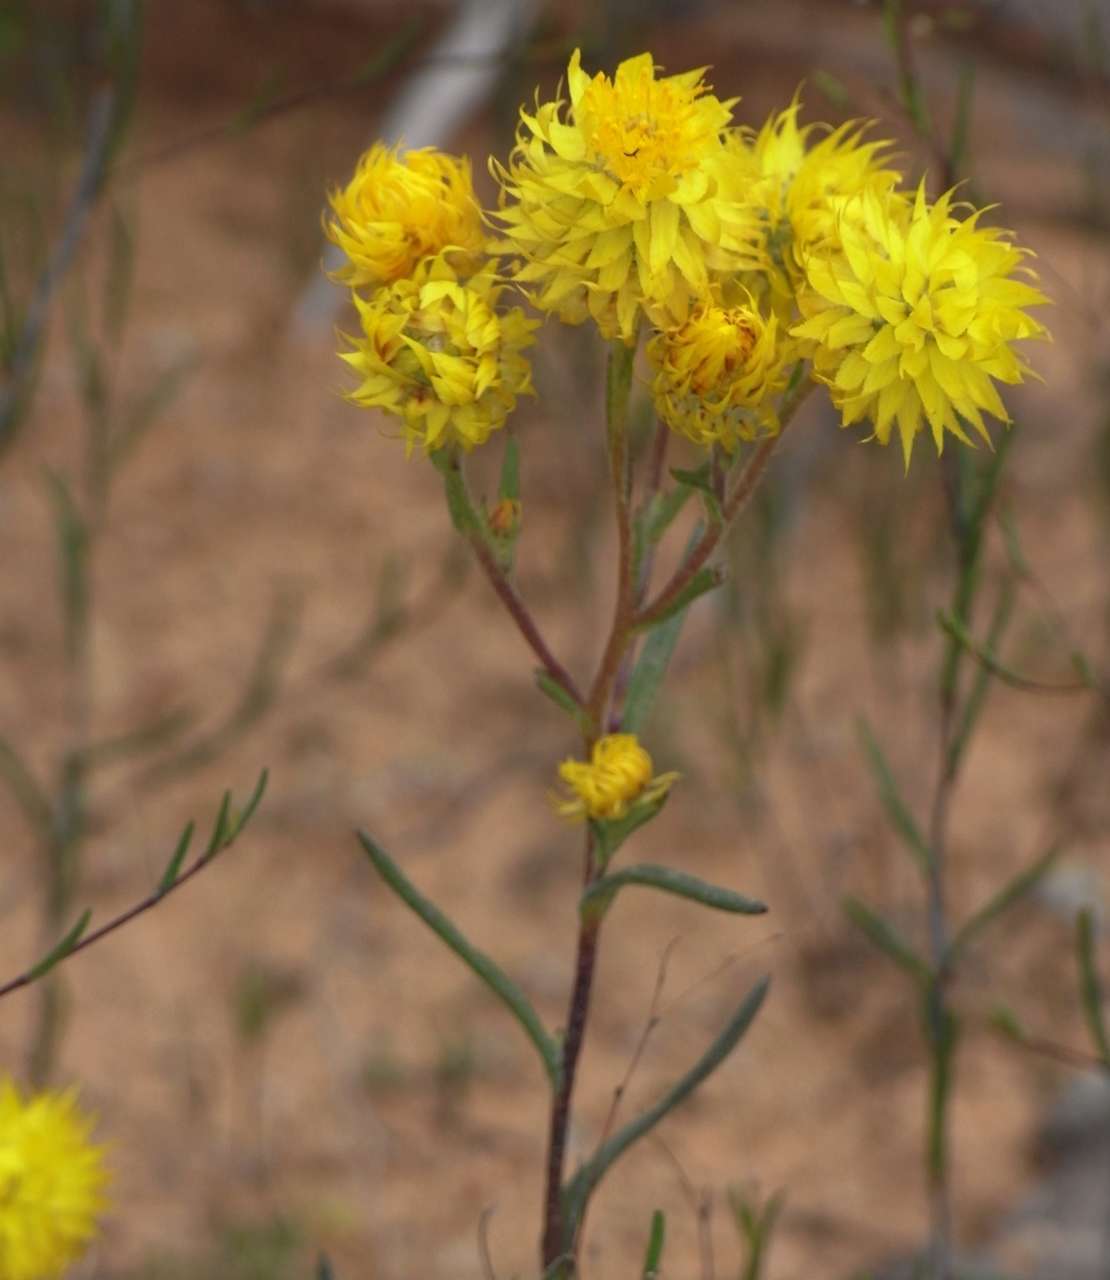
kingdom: Plantae
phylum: Tracheophyta
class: Magnoliopsida
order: Asterales
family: Asteraceae
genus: Waitzia
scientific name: Waitzia acuminata
